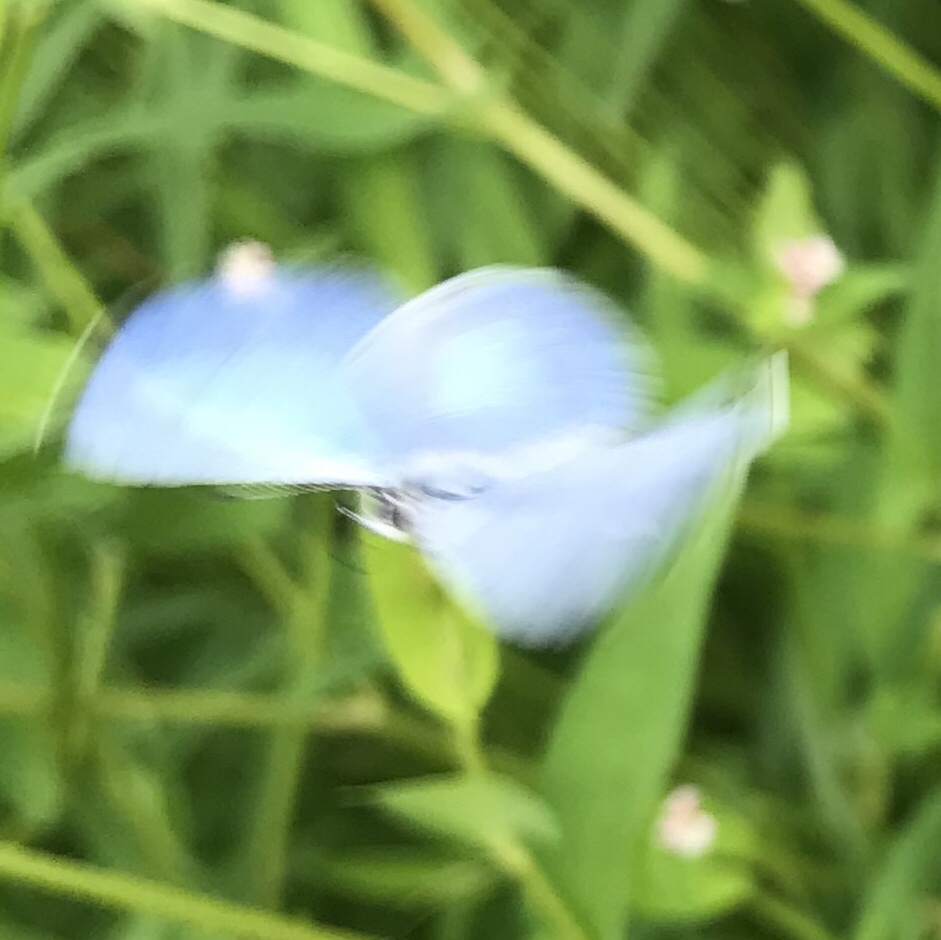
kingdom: Animalia
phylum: Arthropoda
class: Insecta
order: Lepidoptera
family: Lycaenidae
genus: Cyaniris
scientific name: Cyaniris neglecta
